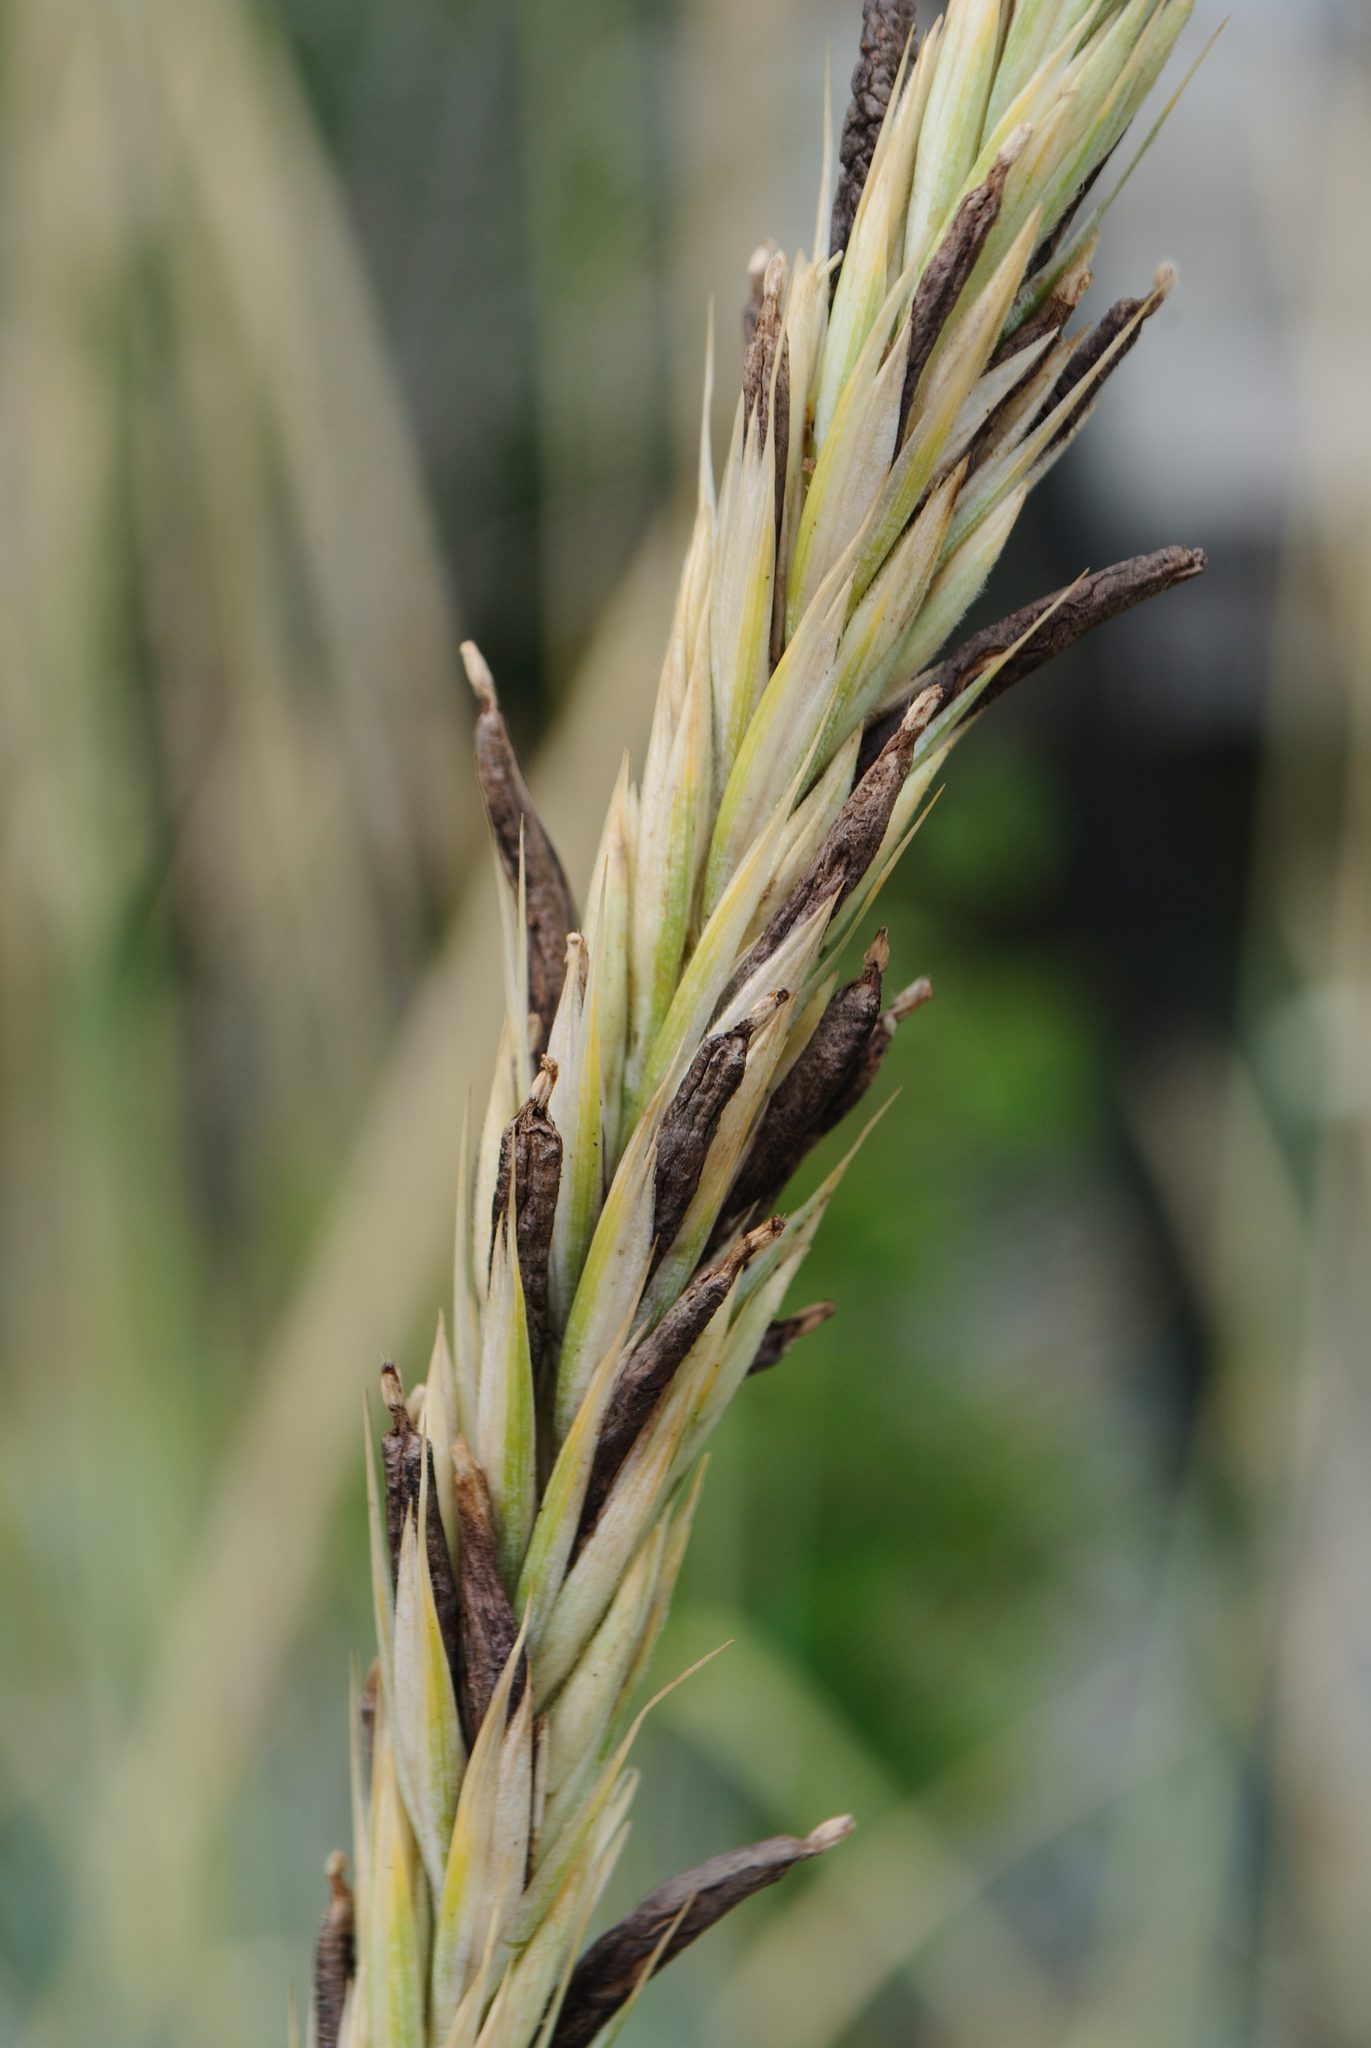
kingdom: Fungi
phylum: Ascomycota
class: Sordariomycetes
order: Hypocreales
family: Clavicipitaceae
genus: Claviceps
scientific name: Claviceps purpurea
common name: Rye ergot
